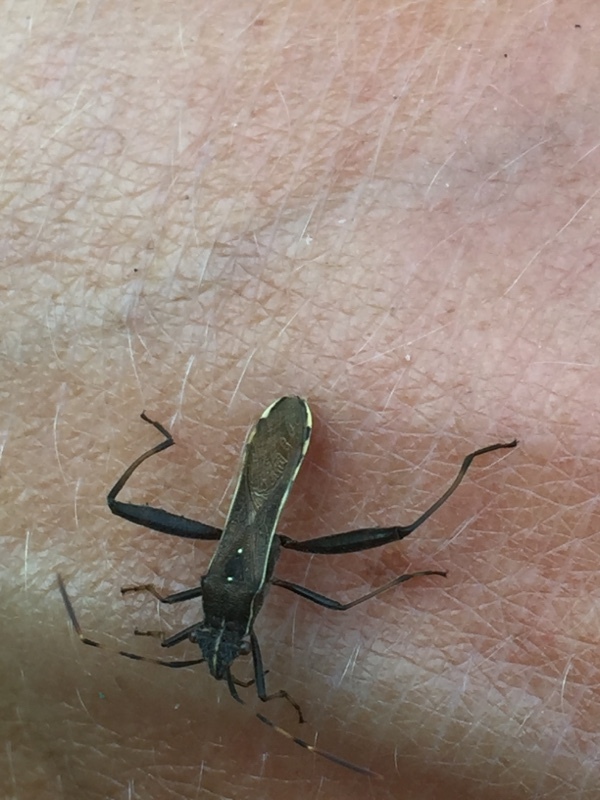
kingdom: Animalia
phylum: Arthropoda
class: Insecta
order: Hemiptera
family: Alydidae
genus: Camptopus
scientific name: Camptopus lateralis
